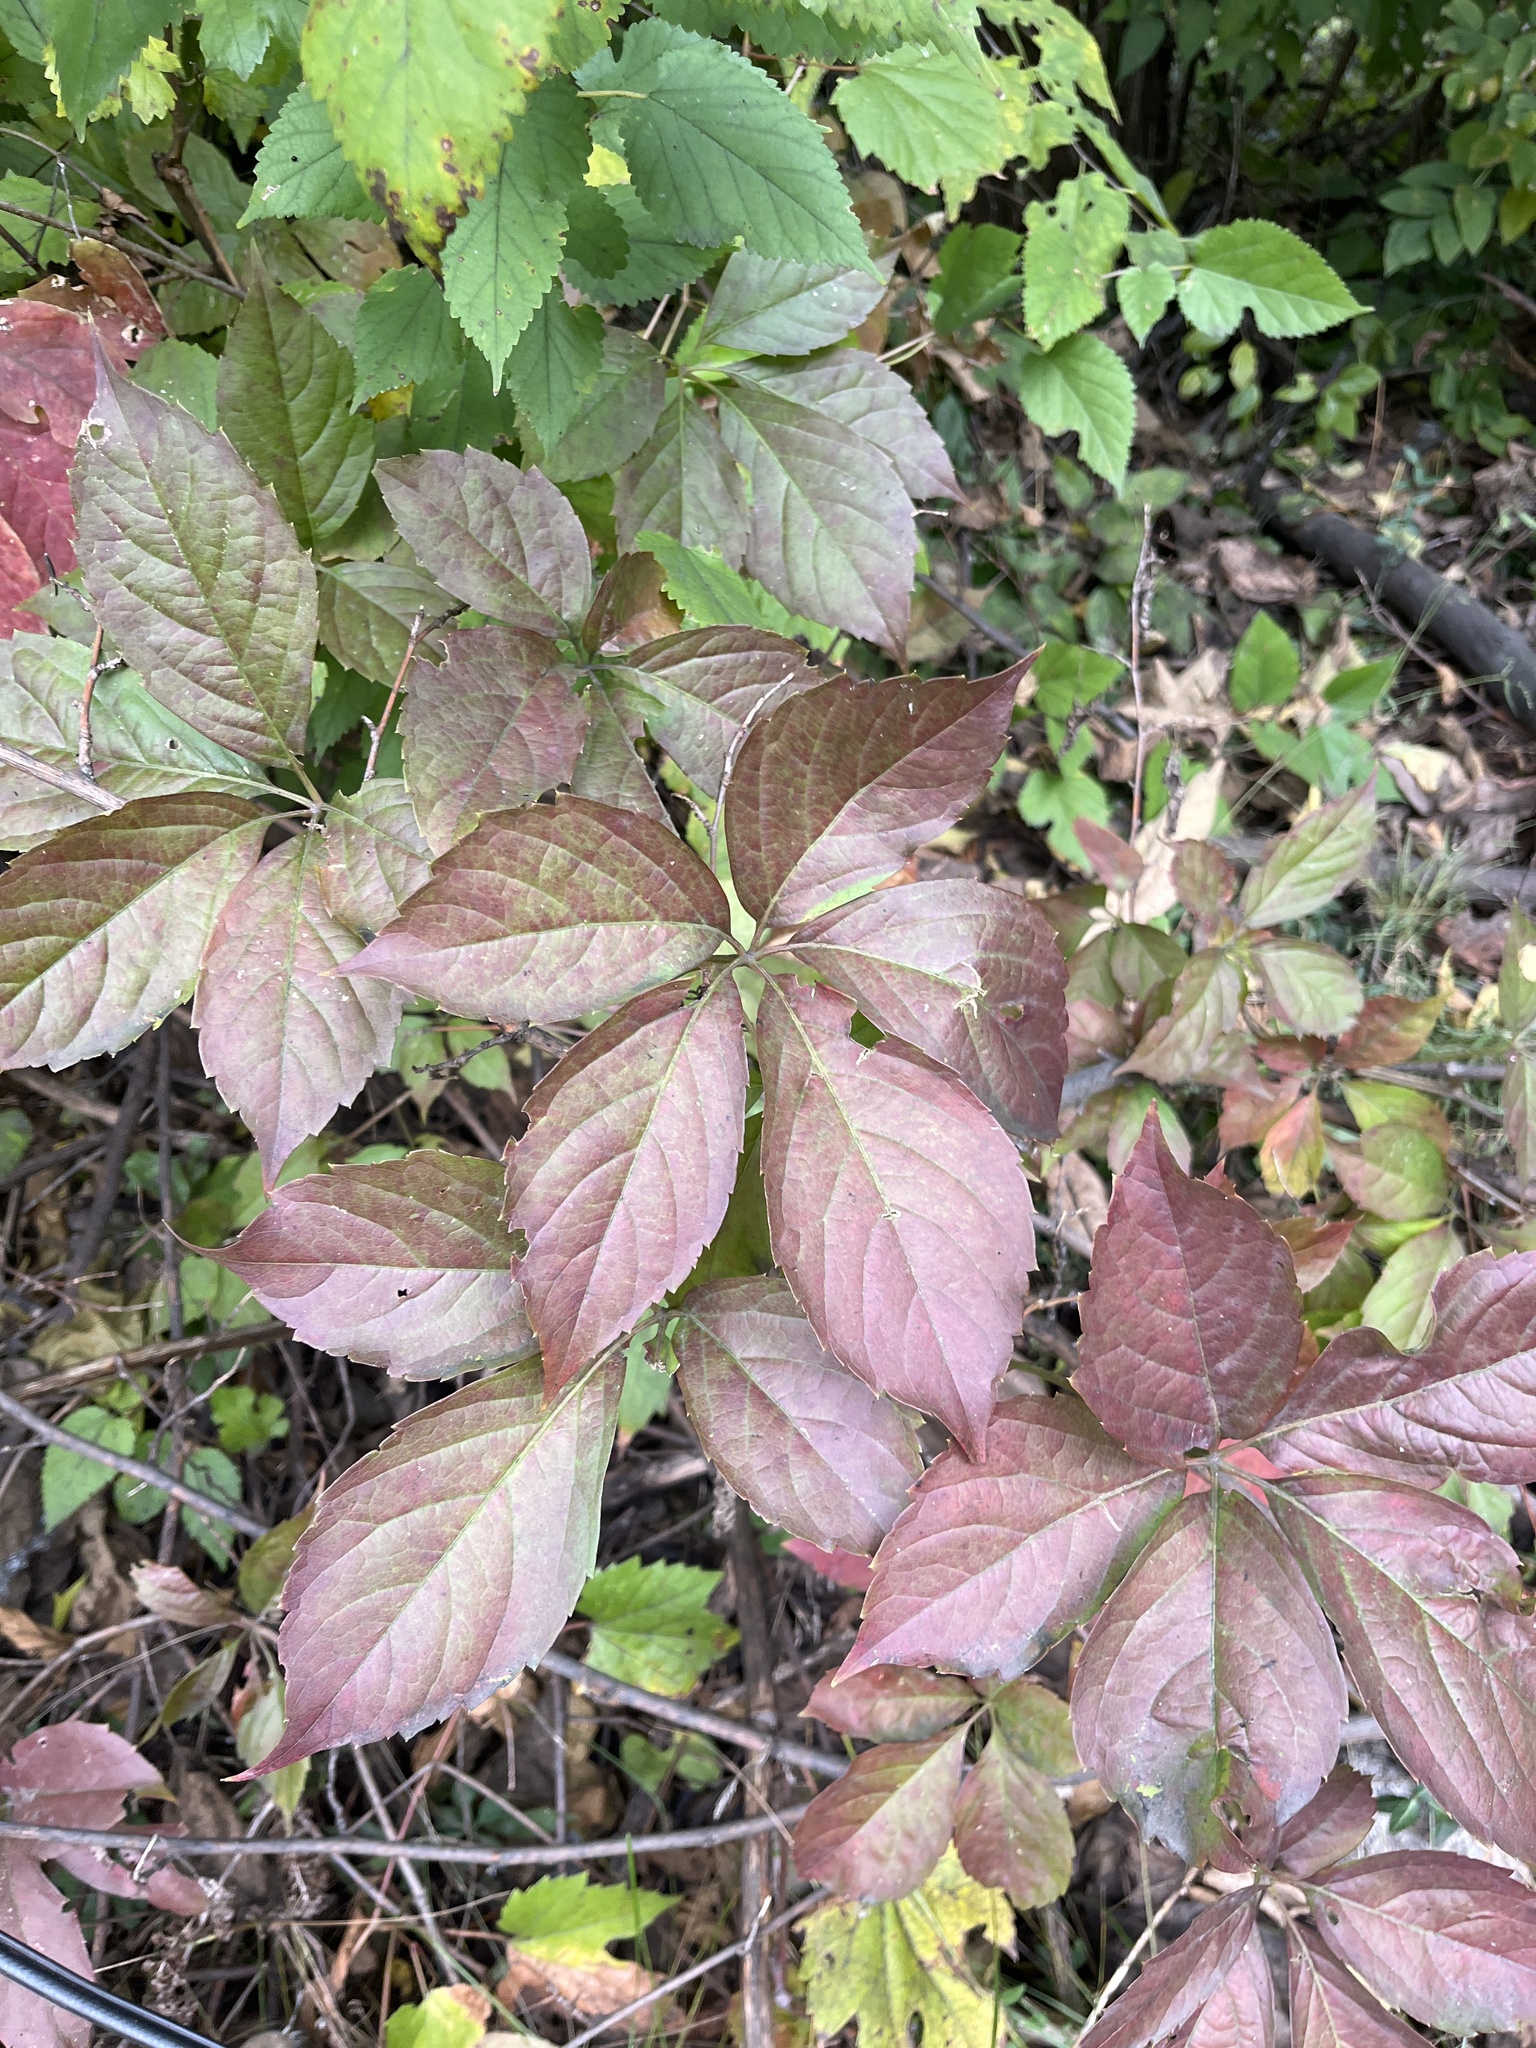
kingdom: Plantae
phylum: Tracheophyta
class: Magnoliopsida
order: Vitales
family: Vitaceae
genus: Parthenocissus
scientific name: Parthenocissus quinquefolia
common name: Virginia-creeper
